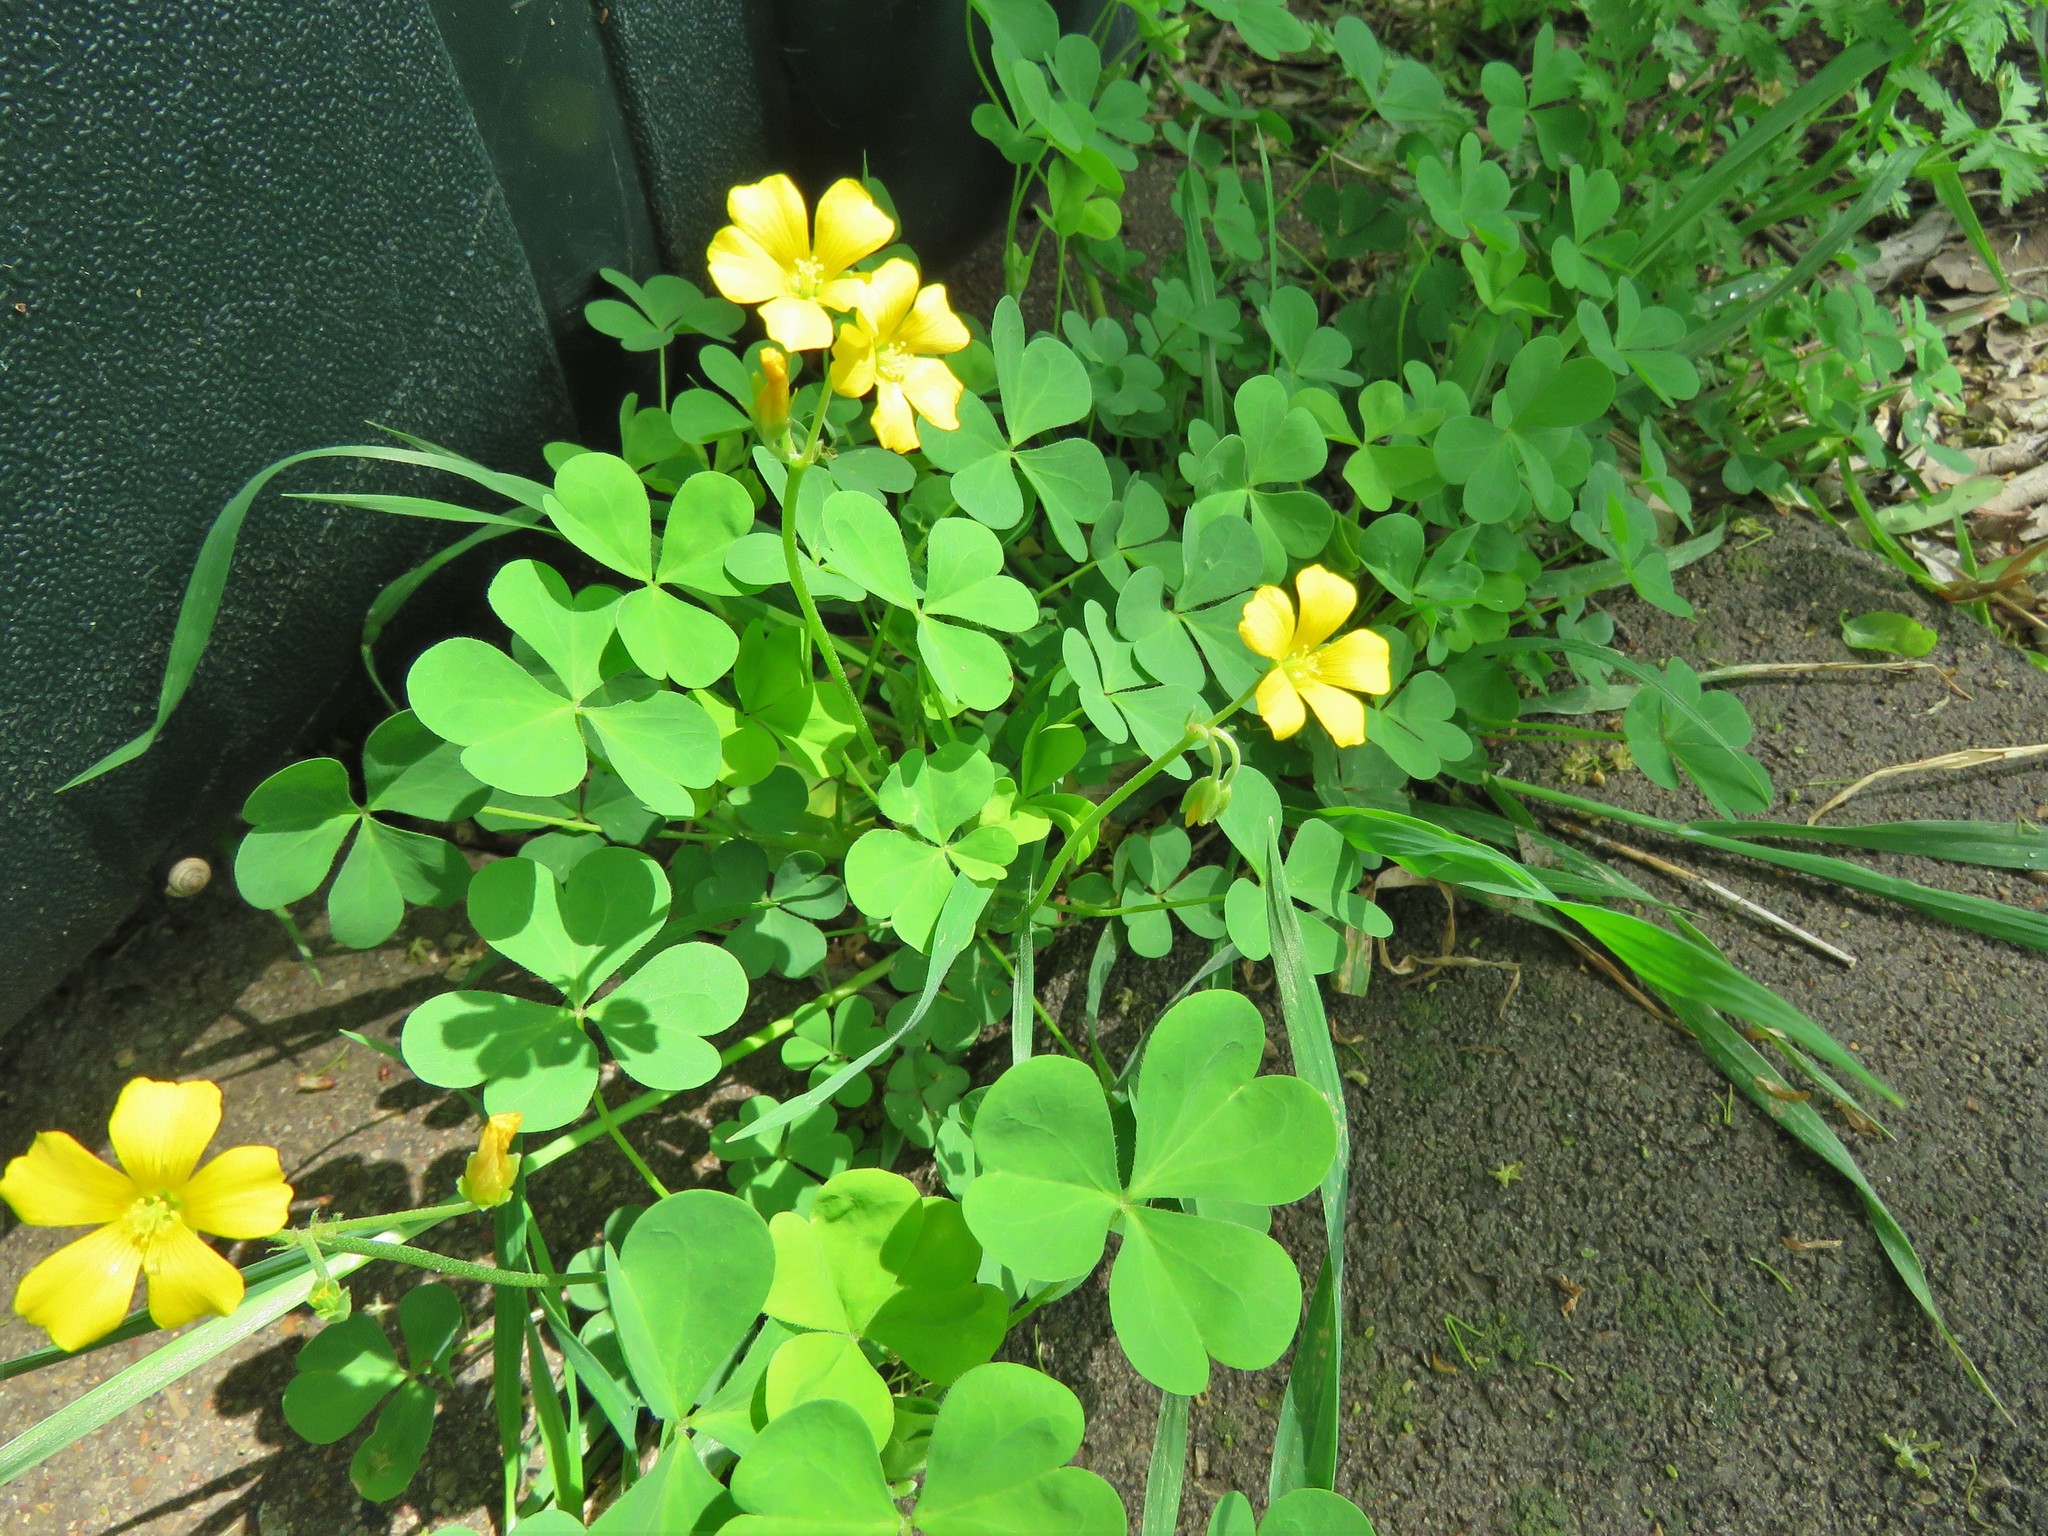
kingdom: Plantae
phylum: Tracheophyta
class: Magnoliopsida
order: Oxalidales
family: Oxalidaceae
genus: Oxalis
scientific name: Oxalis dillenii
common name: Sussex yellow-sorrel
